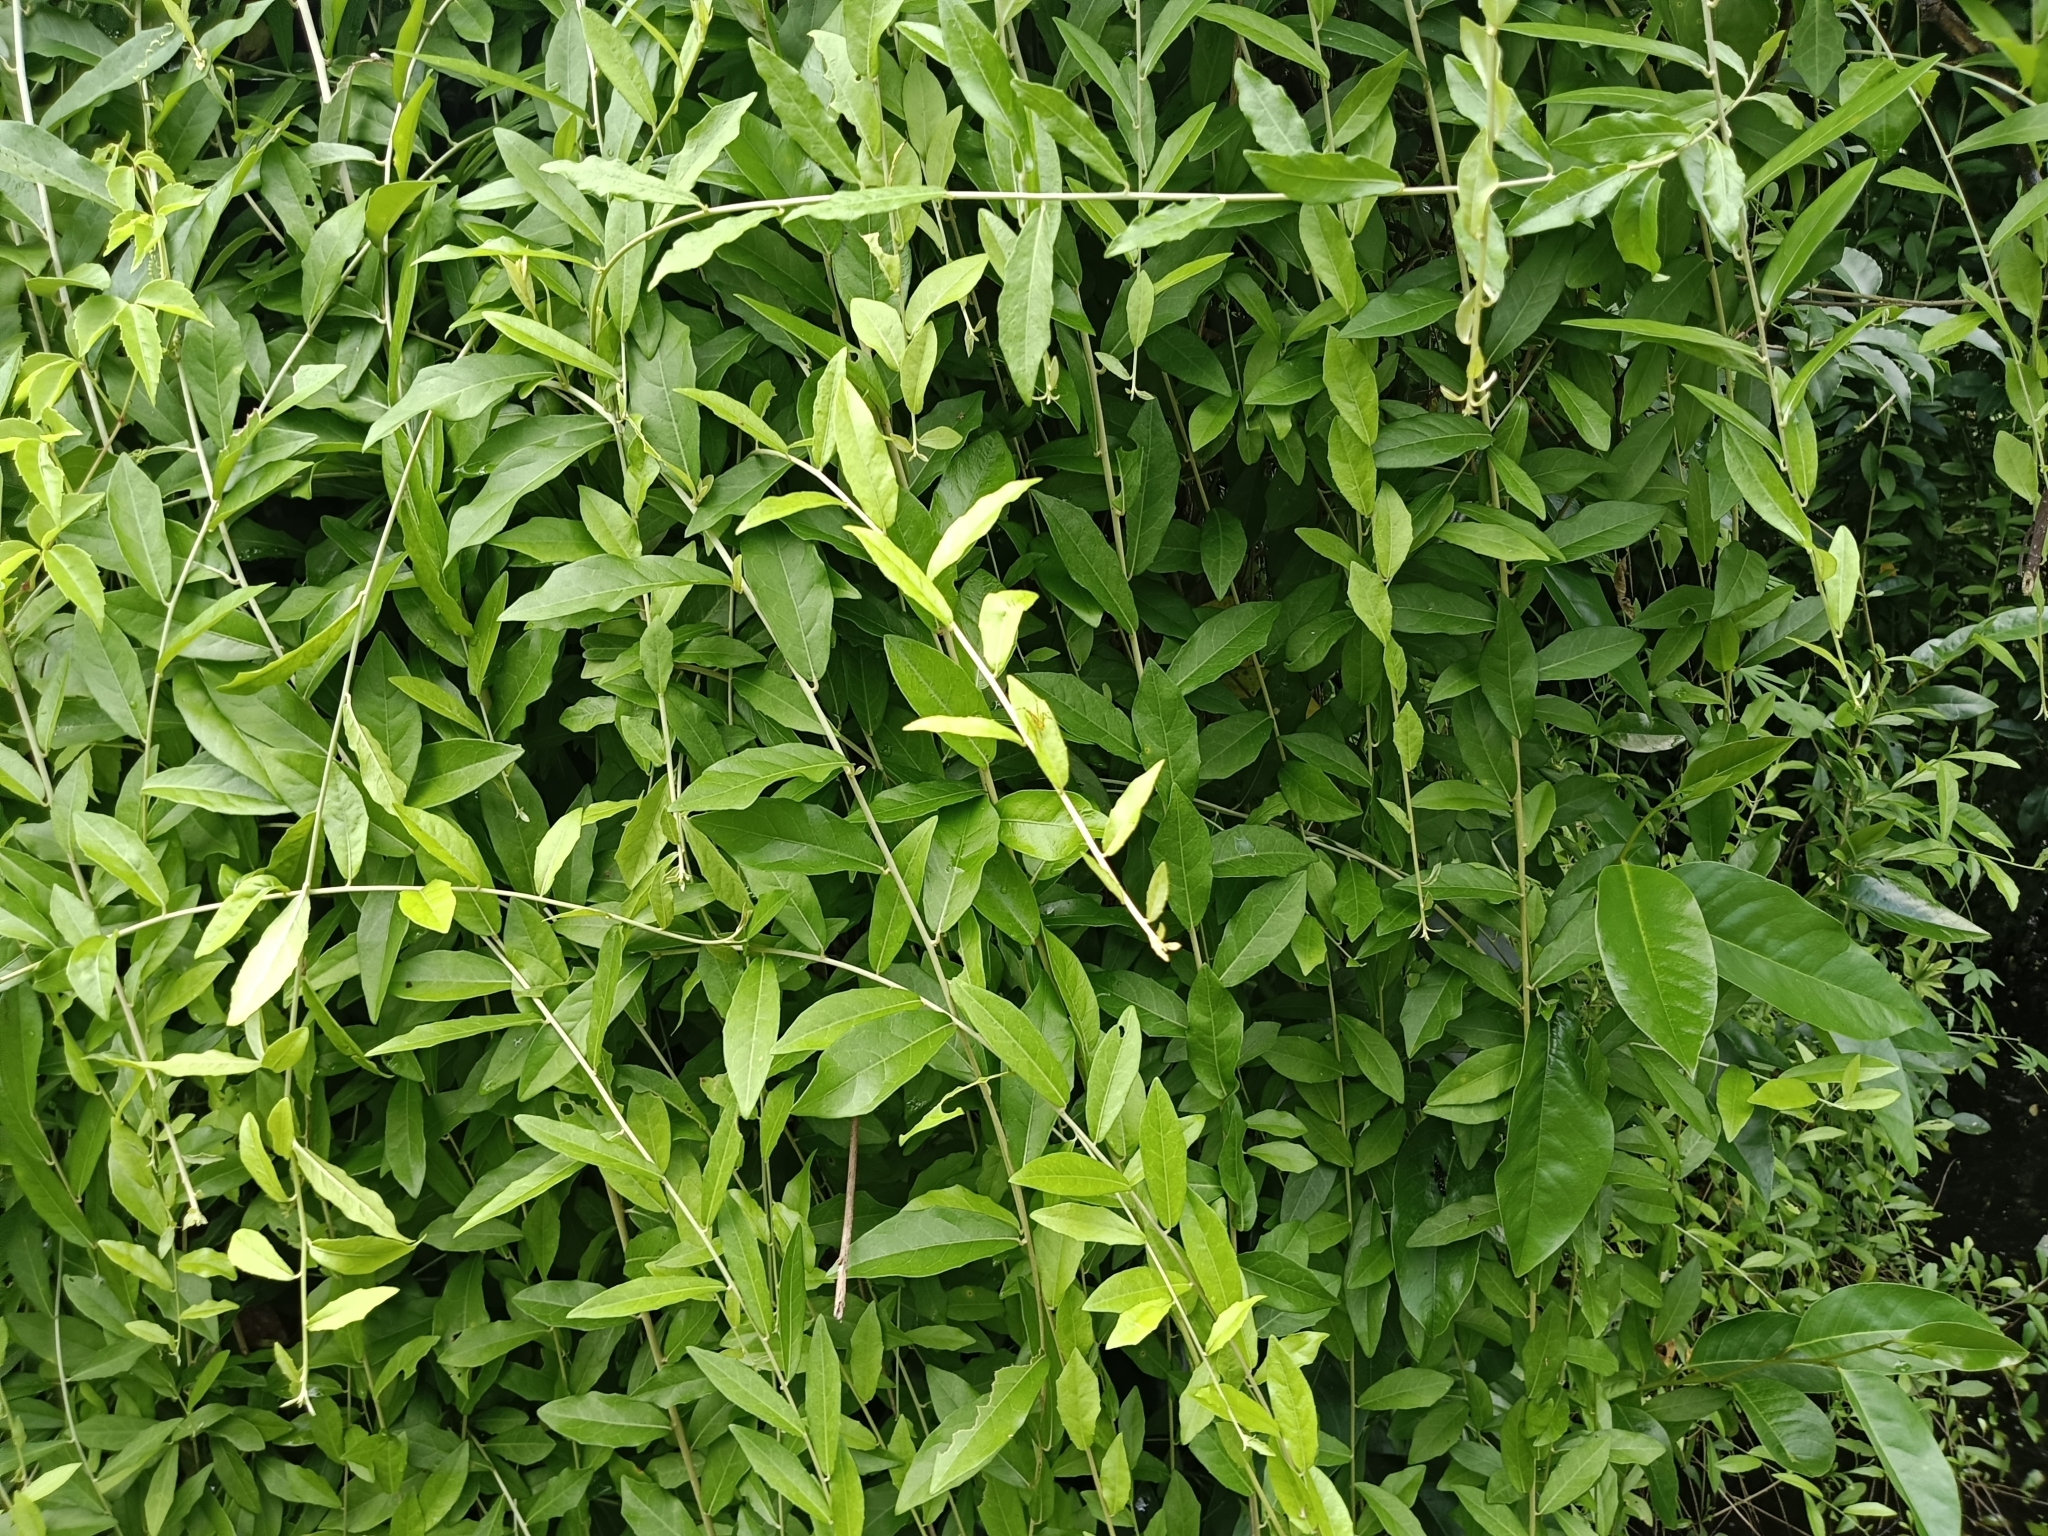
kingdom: Plantae
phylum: Tracheophyta
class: Magnoliopsida
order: Asterales
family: Asteraceae
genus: Tarlmounia
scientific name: Tarlmounia elliptica
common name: Kheua sa lot
